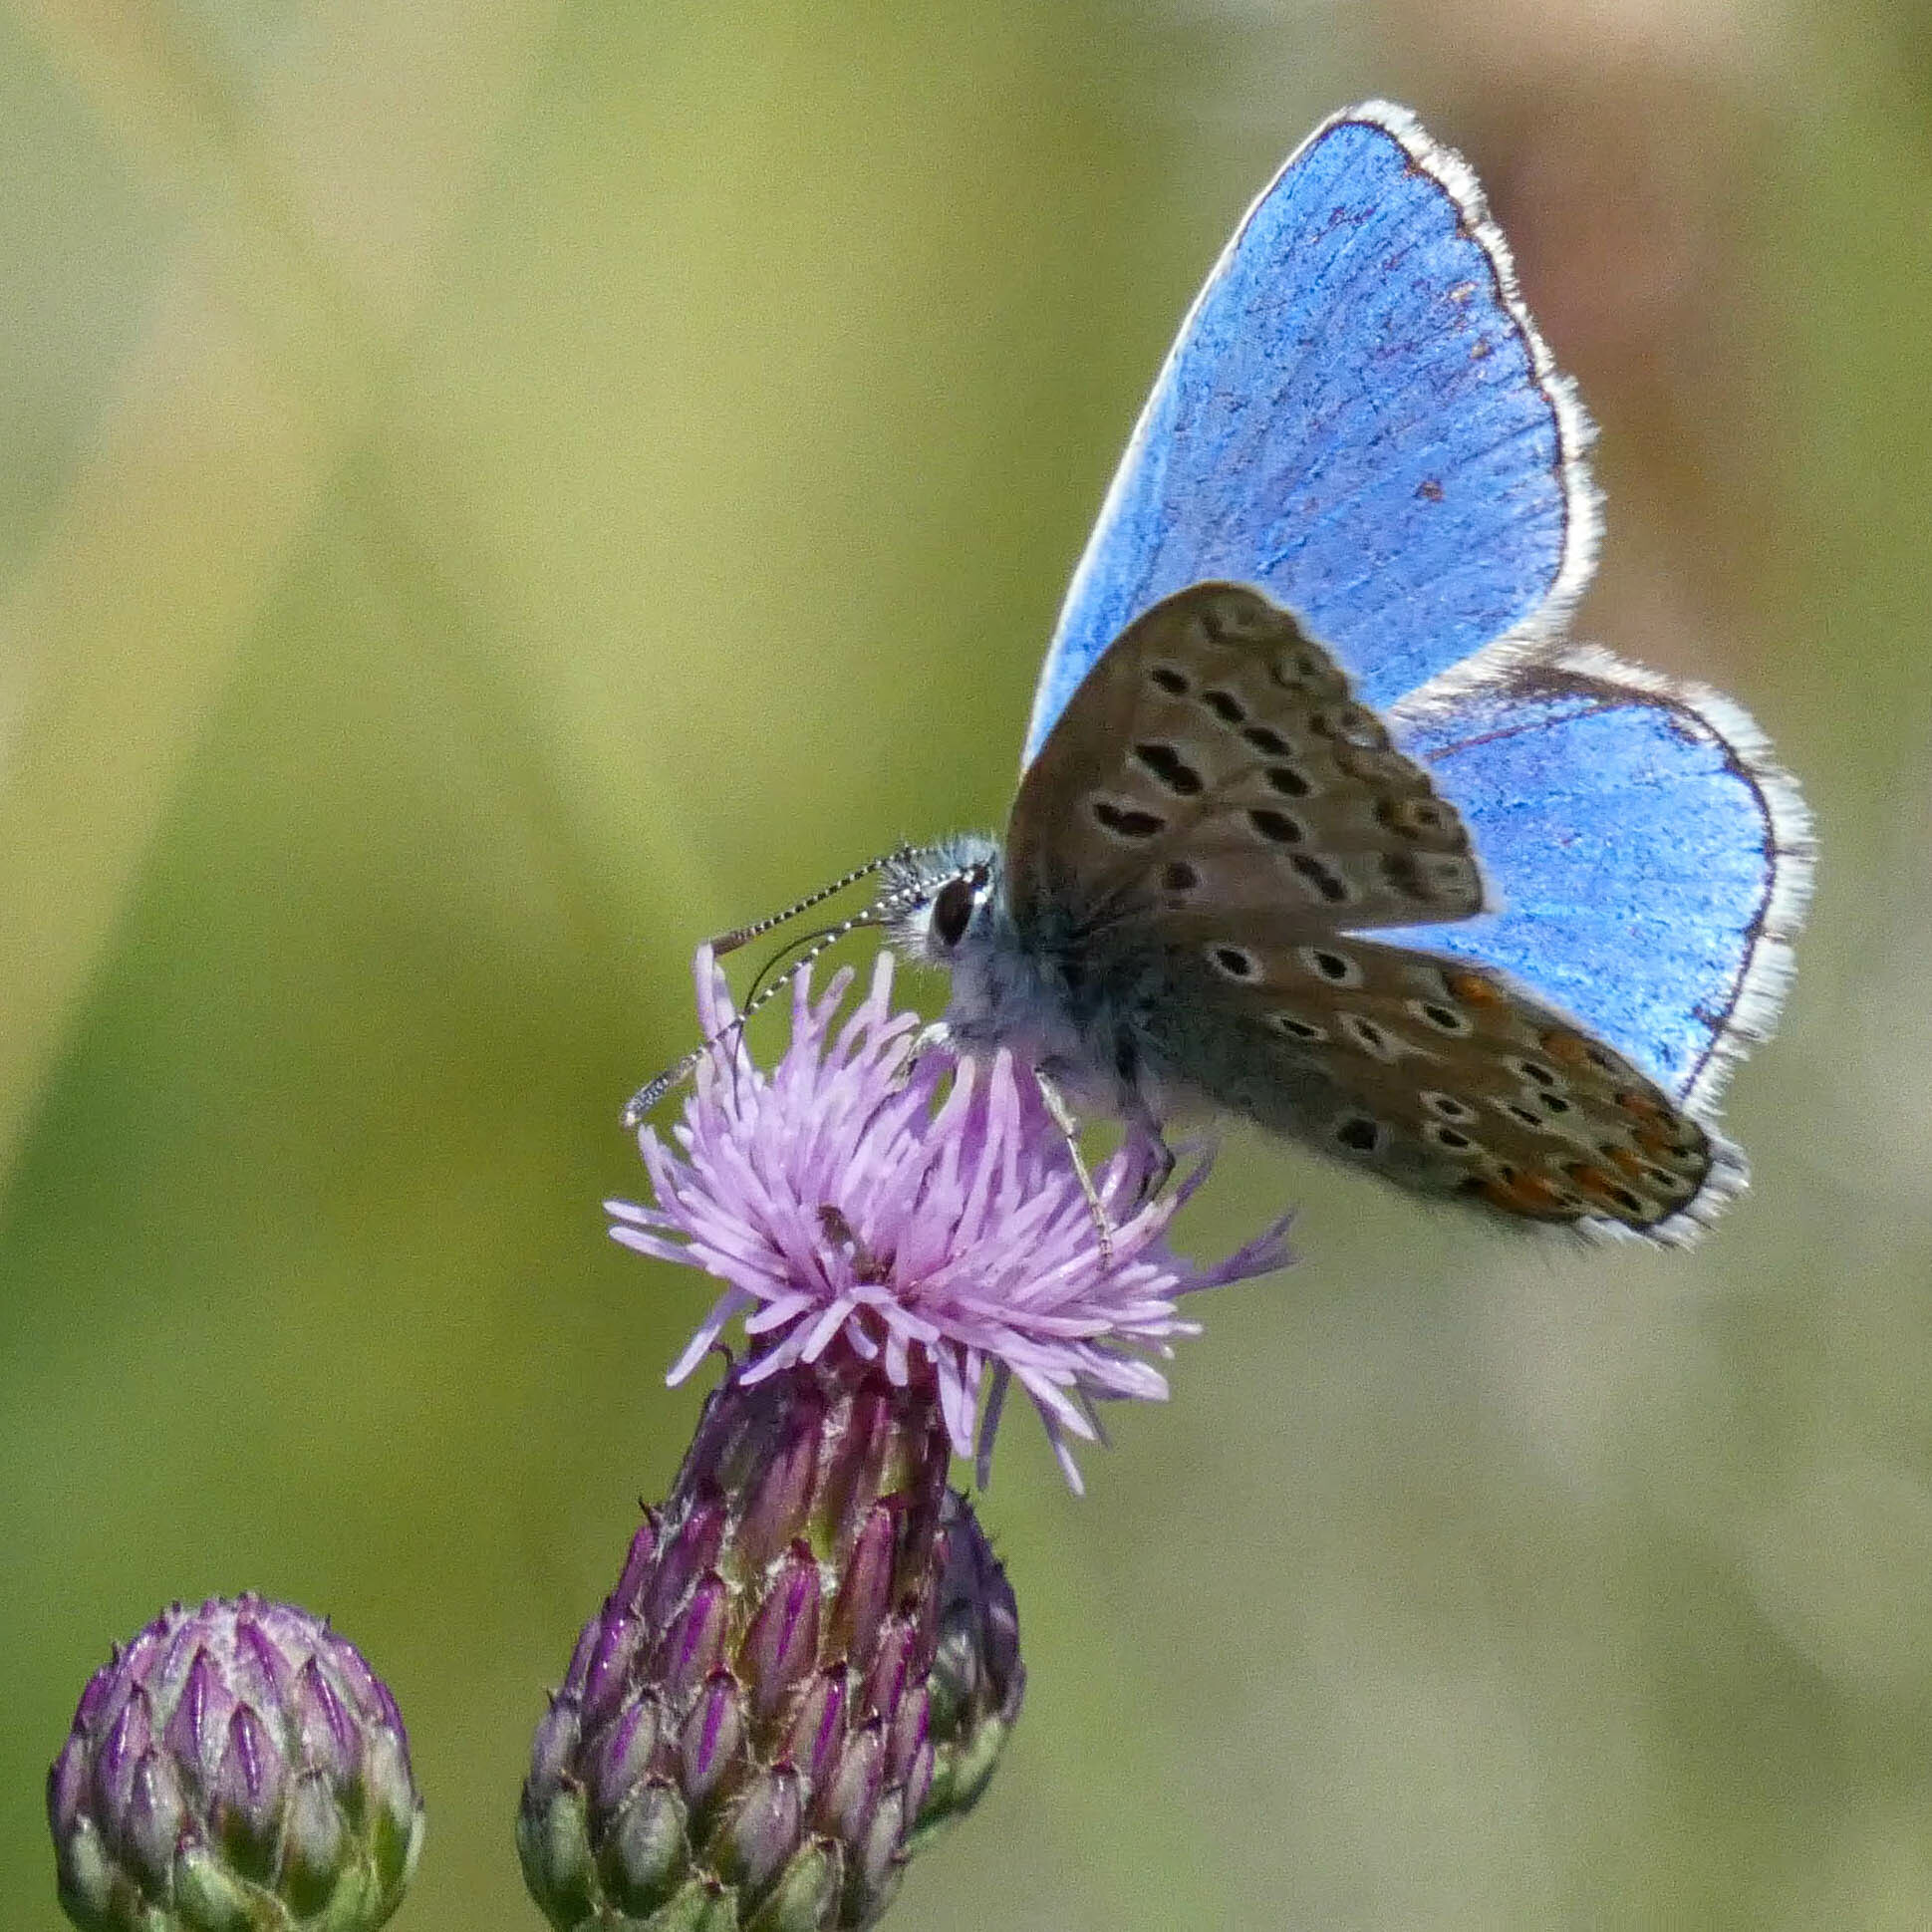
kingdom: Animalia
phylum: Arthropoda
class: Insecta
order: Lepidoptera
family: Lycaenidae
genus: Lysandra
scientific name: Lysandra bellargus
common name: Adonis blue
